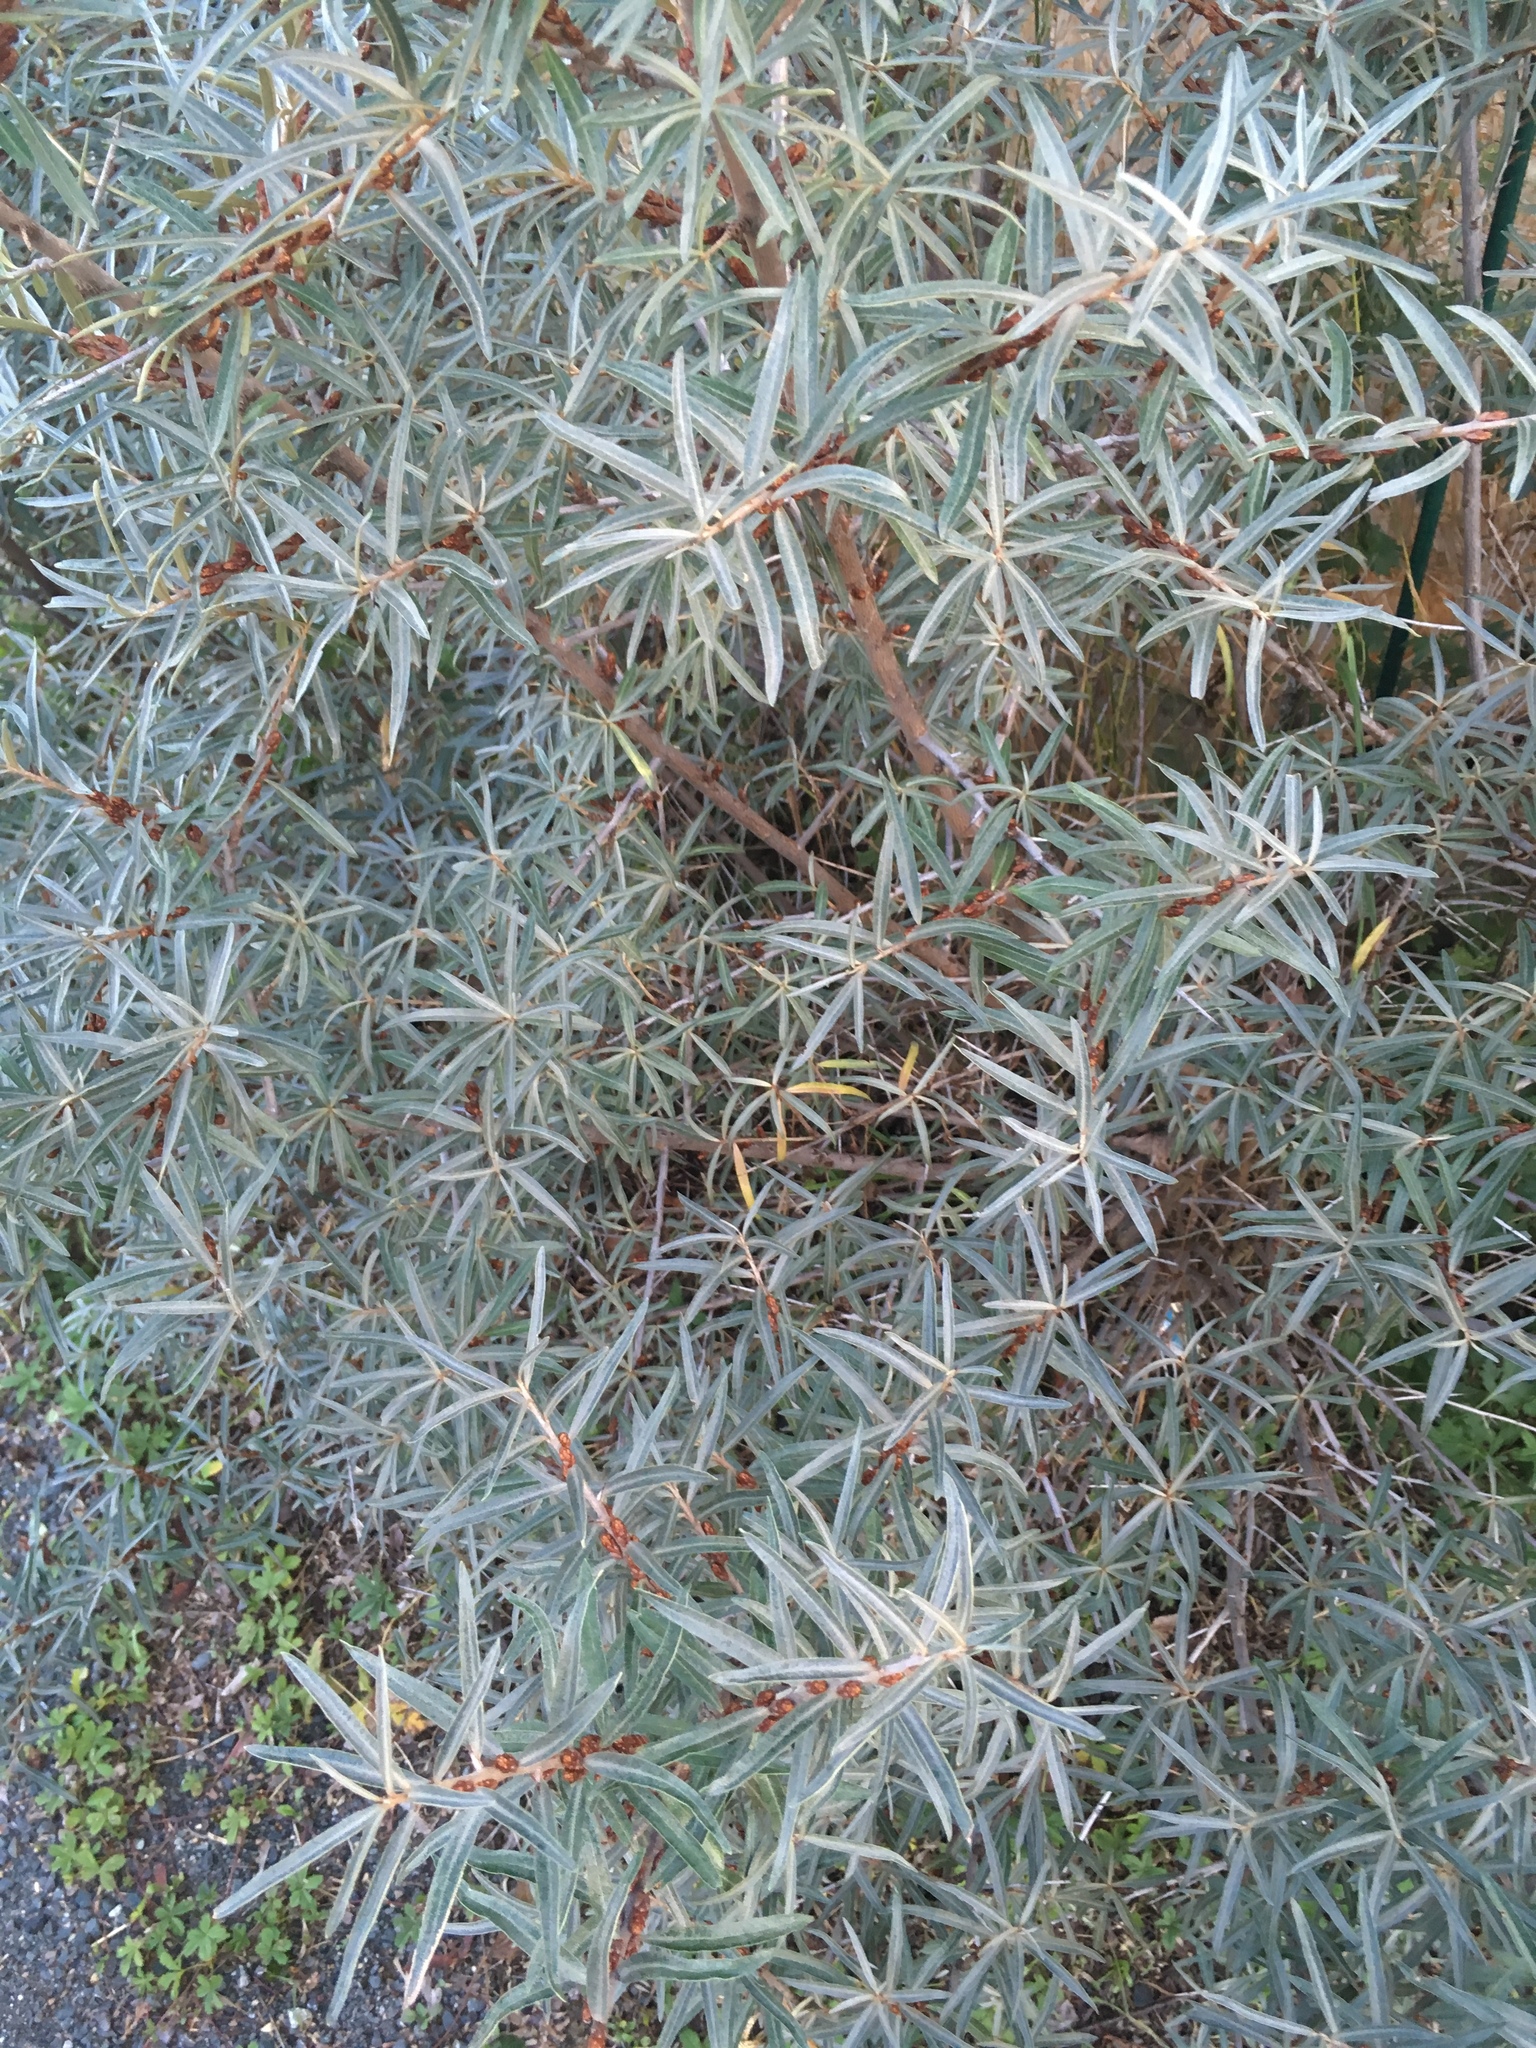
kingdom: Plantae
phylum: Tracheophyta
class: Magnoliopsida
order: Rosales
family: Elaeagnaceae
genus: Hippophae
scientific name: Hippophae rhamnoides
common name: Sea-buckthorn
